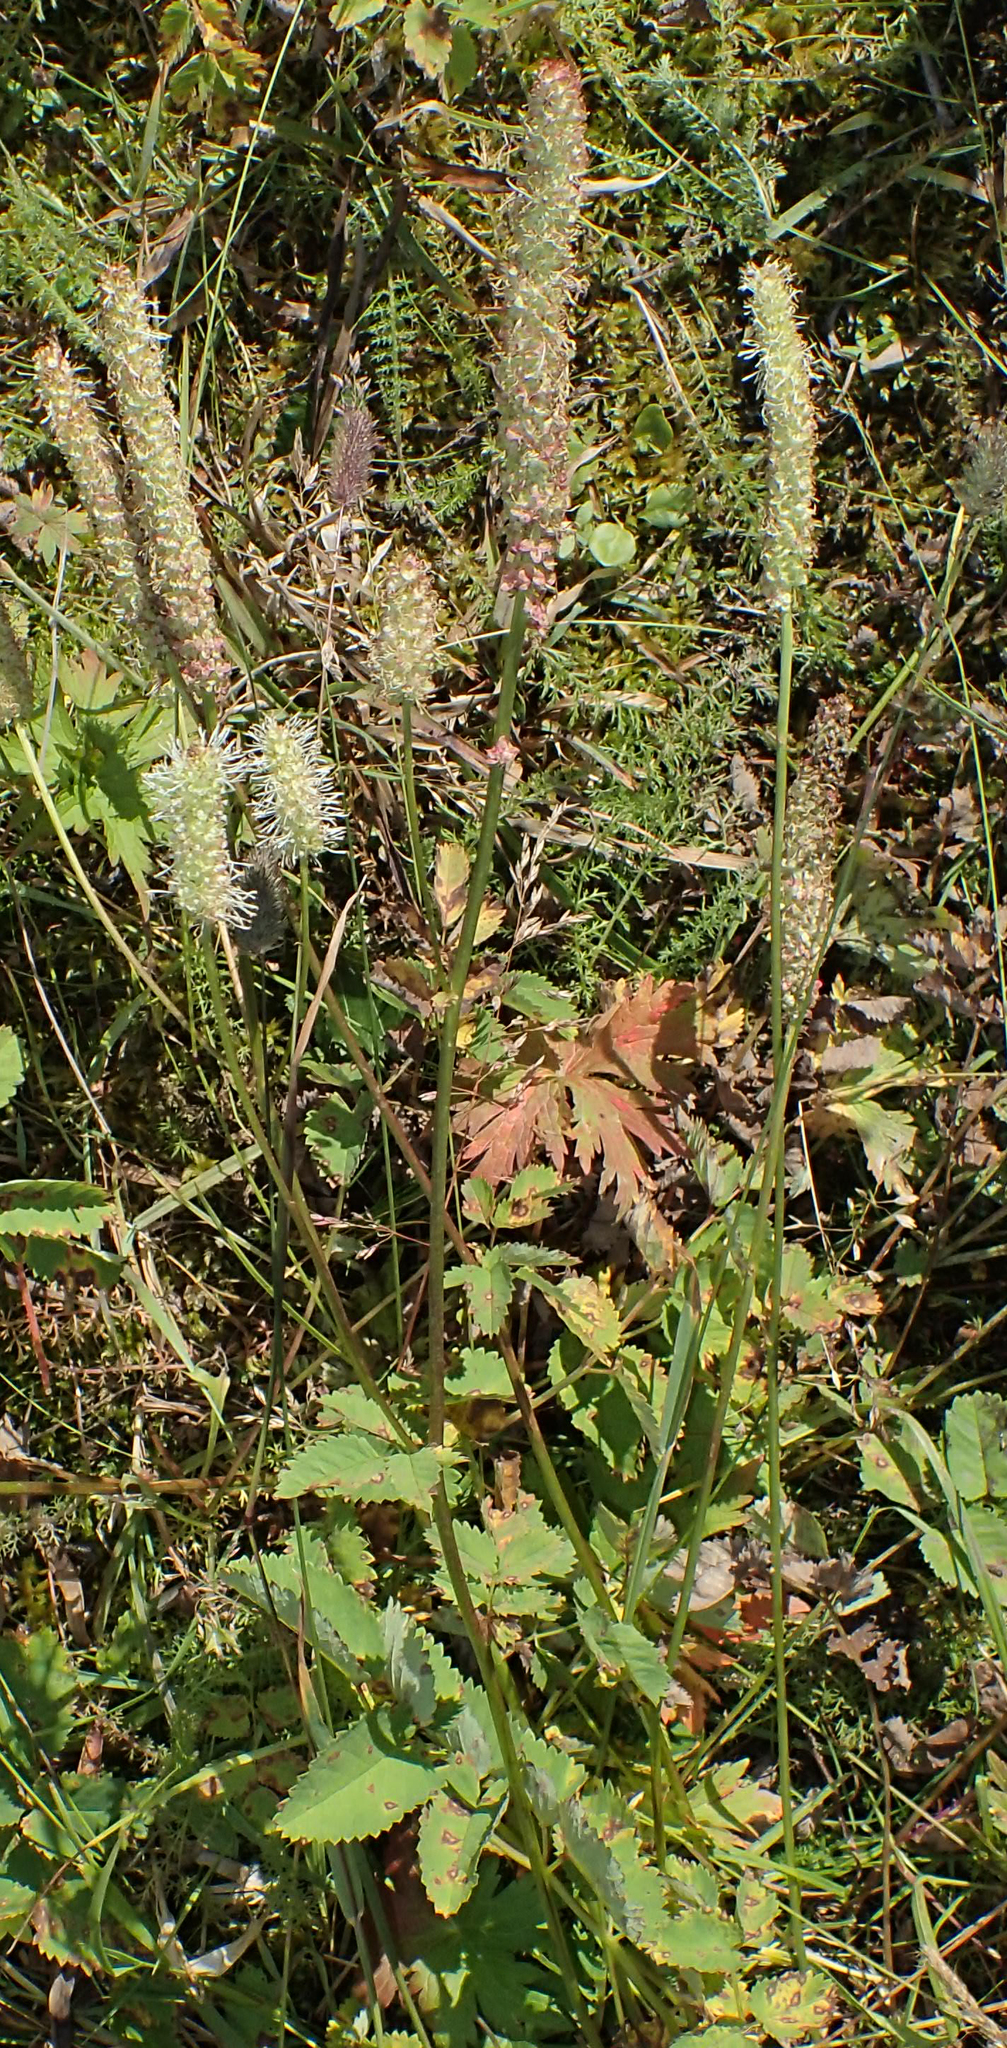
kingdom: Plantae
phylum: Tracheophyta
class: Magnoliopsida
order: Rosales
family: Rosaceae
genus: Sanguisorba
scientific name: Sanguisorba stipulata
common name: Sitka burnet
